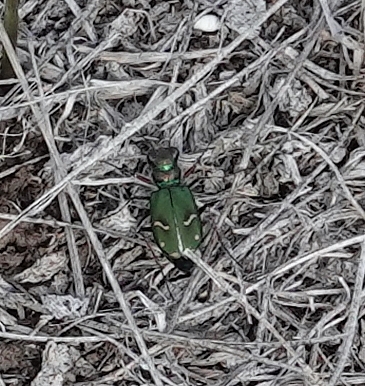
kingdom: Animalia
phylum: Arthropoda
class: Insecta
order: Coleoptera
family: Carabidae
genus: Cicindela
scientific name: Cicindela purpurea
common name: Cow path tiger beetle
